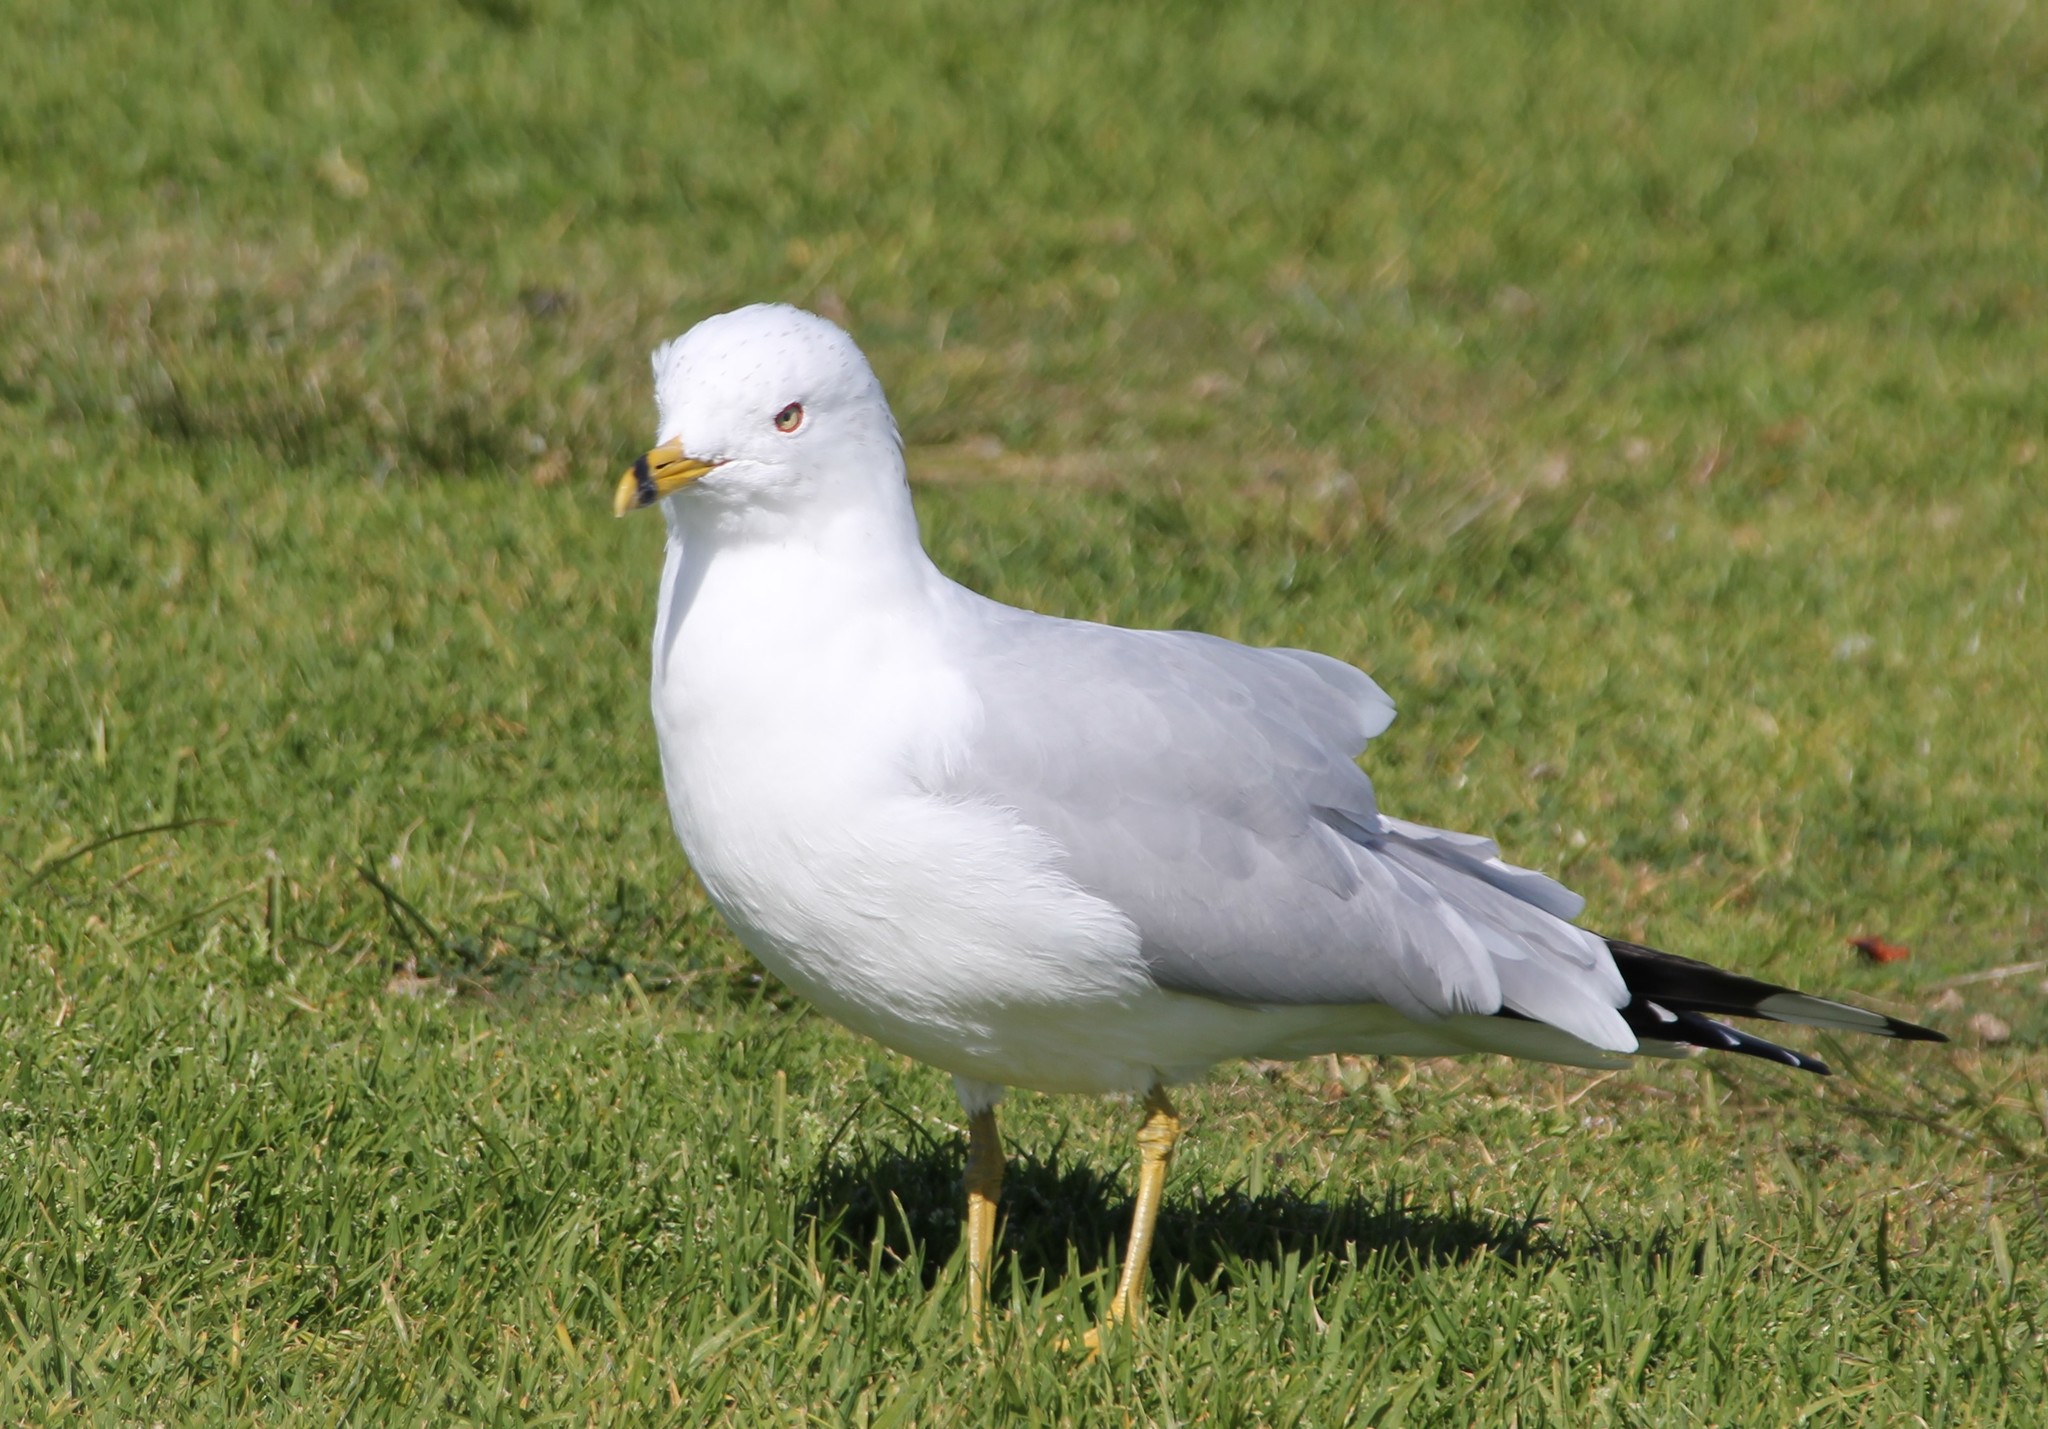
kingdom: Animalia
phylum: Chordata
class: Aves
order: Charadriiformes
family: Laridae
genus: Larus
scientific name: Larus delawarensis
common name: Ring-billed gull
